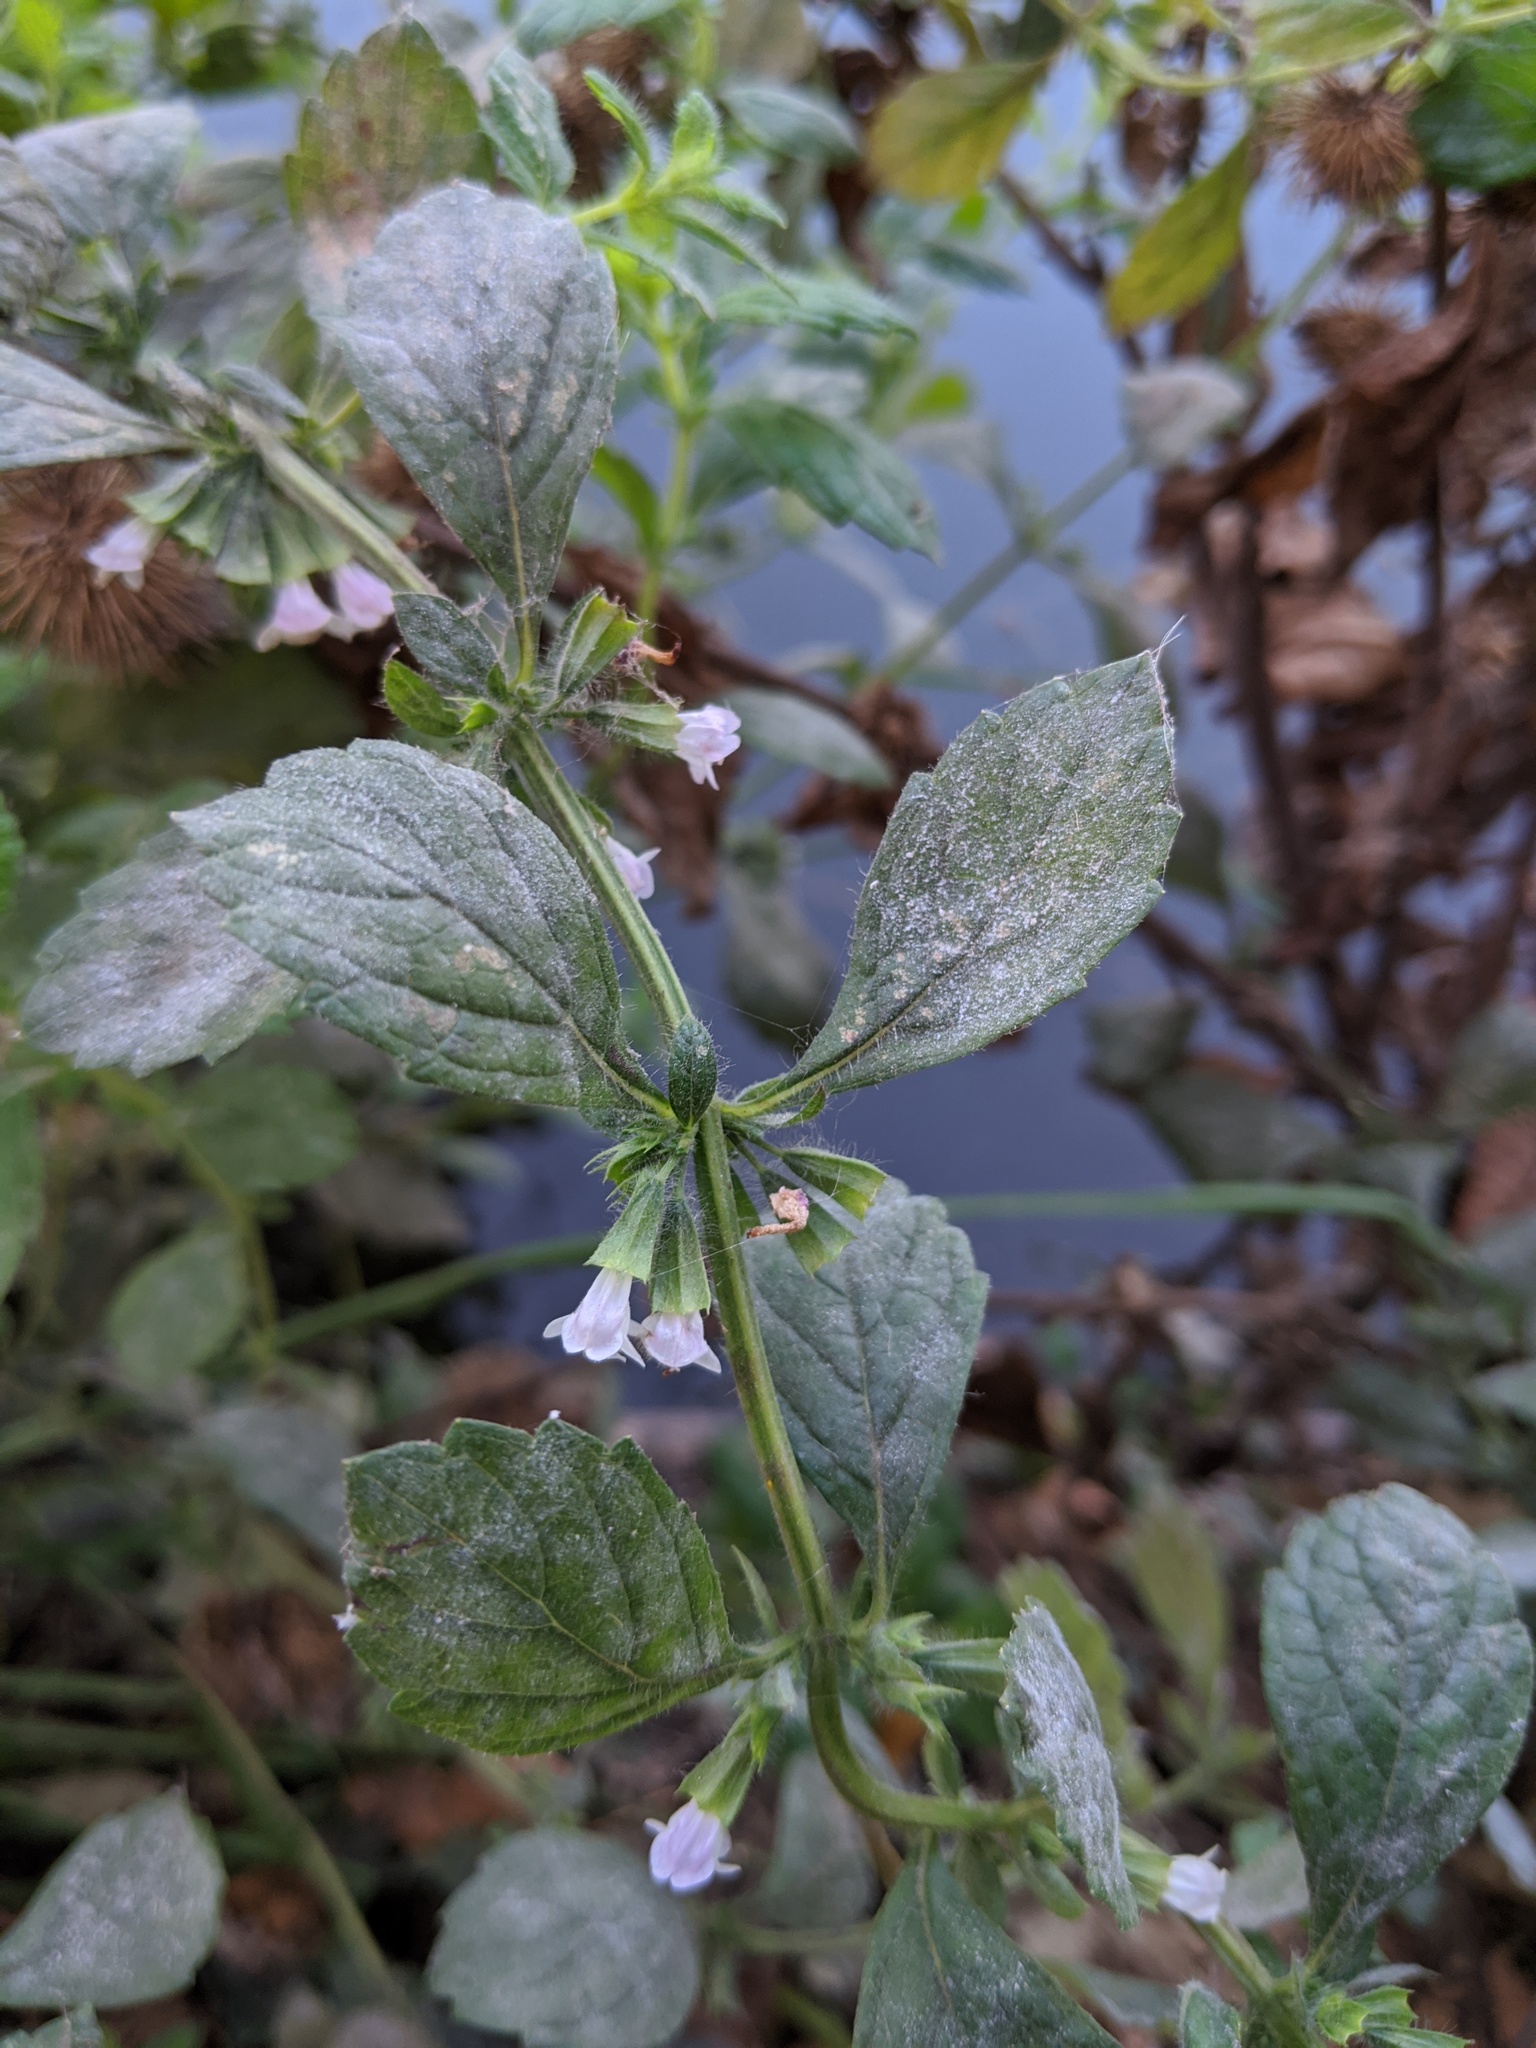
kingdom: Plantae
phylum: Tracheophyta
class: Magnoliopsida
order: Lamiales
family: Lamiaceae
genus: Melissa
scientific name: Melissa officinalis
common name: Balm
